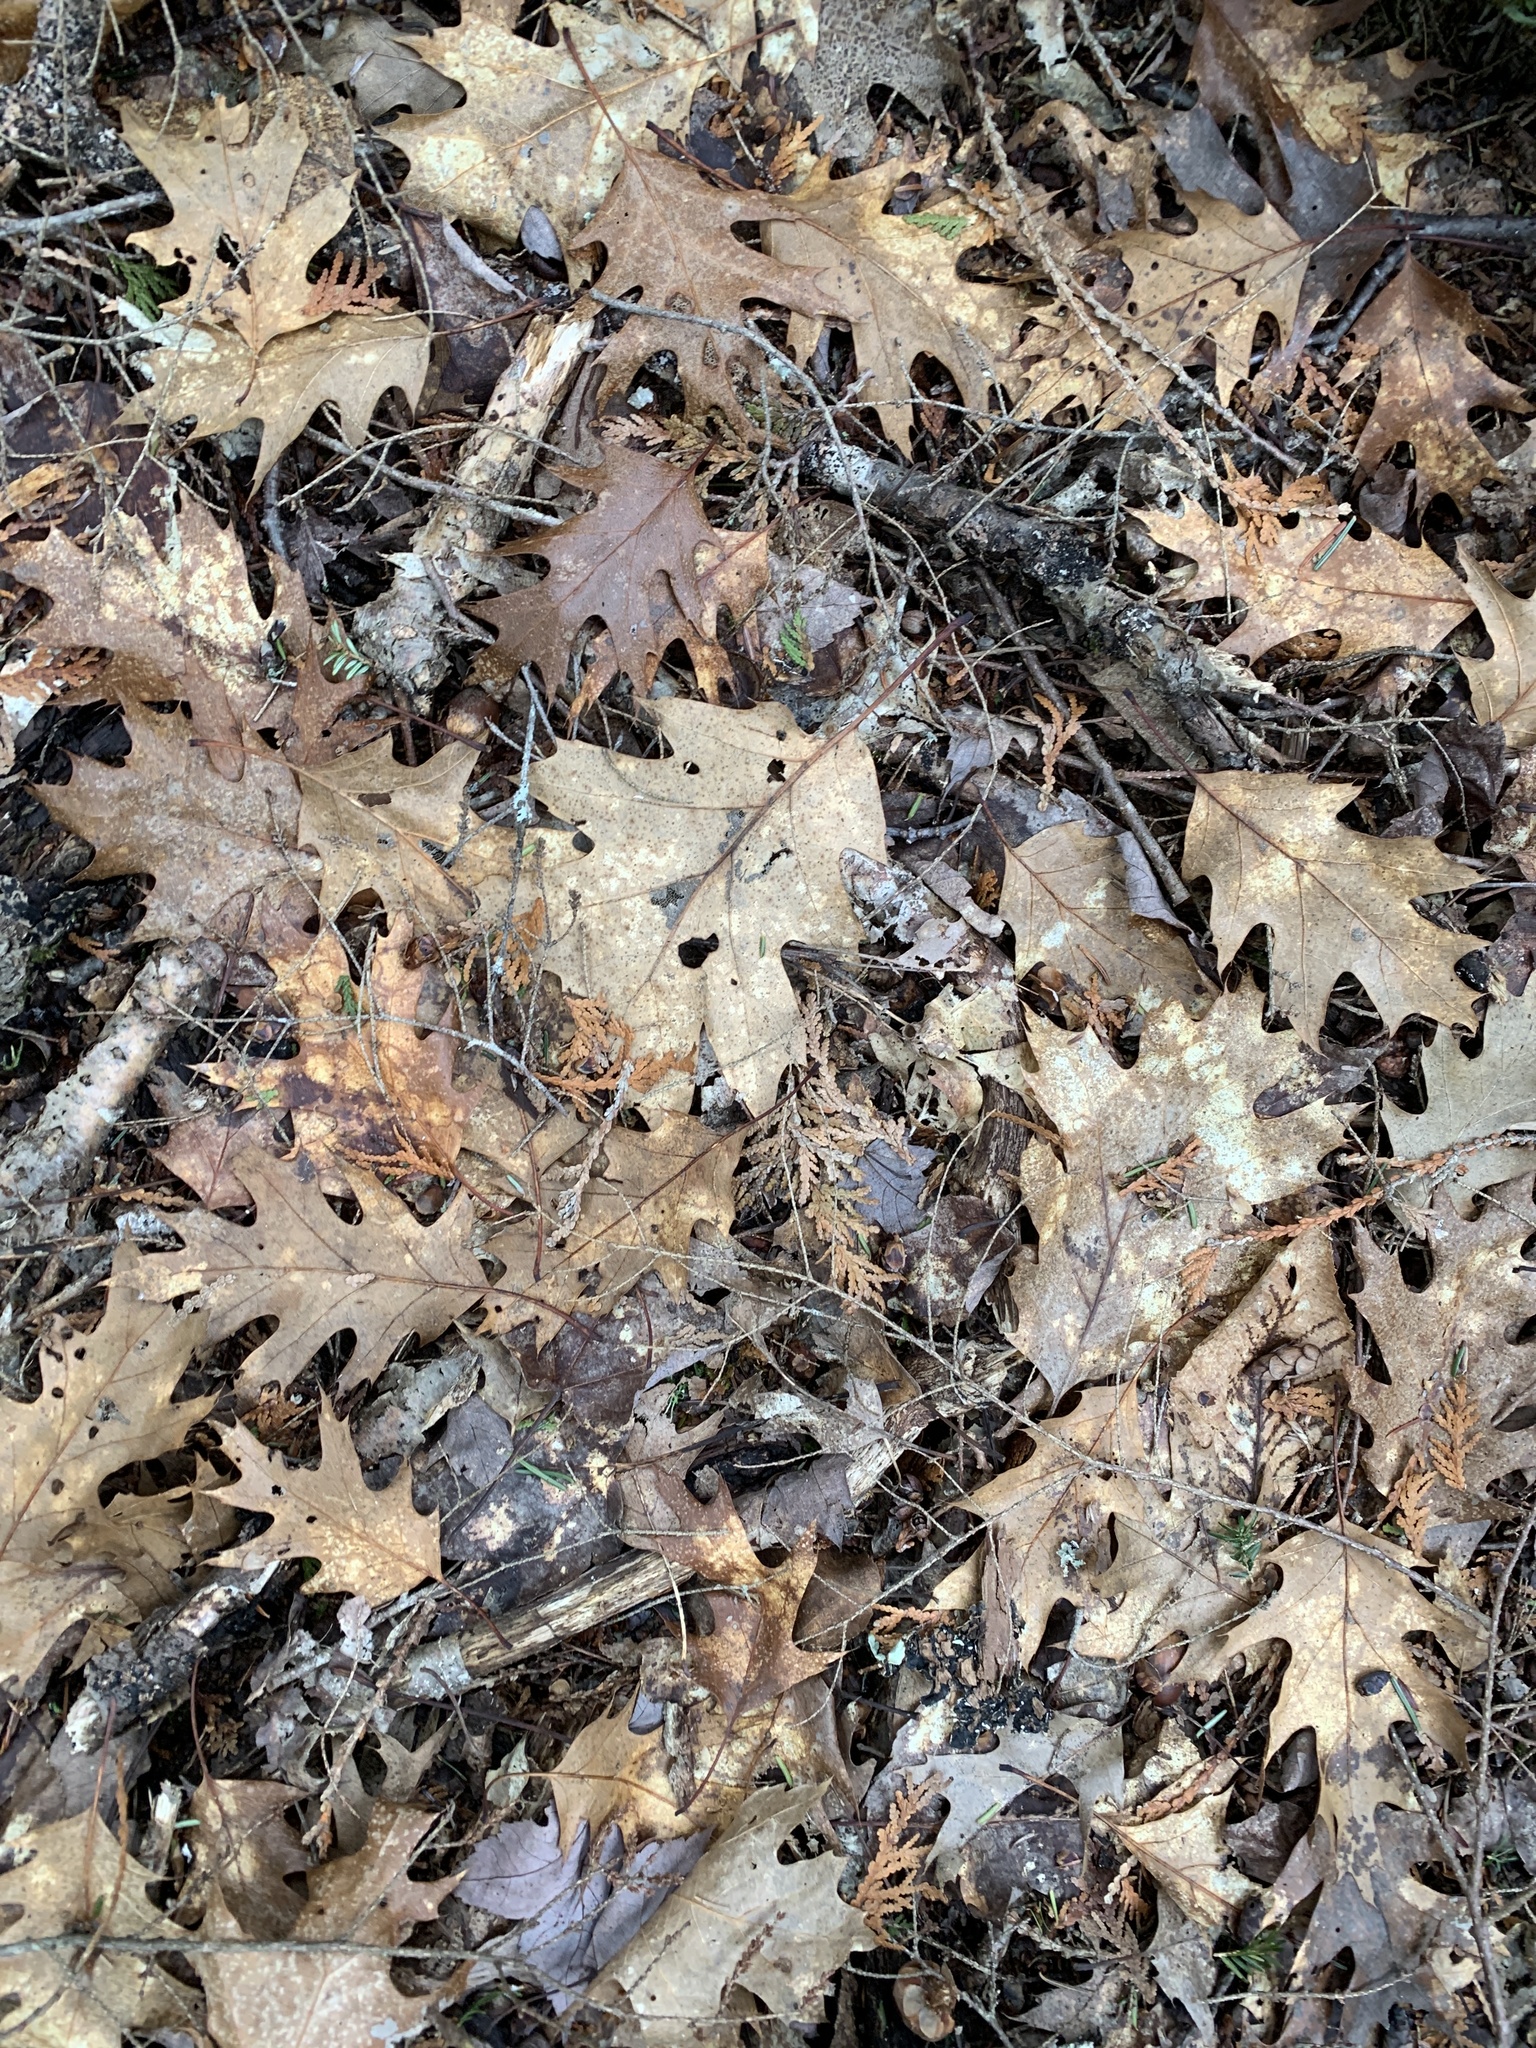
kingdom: Plantae
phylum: Tracheophyta
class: Magnoliopsida
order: Fagales
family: Fagaceae
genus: Quercus
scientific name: Quercus rubra
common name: Red oak
